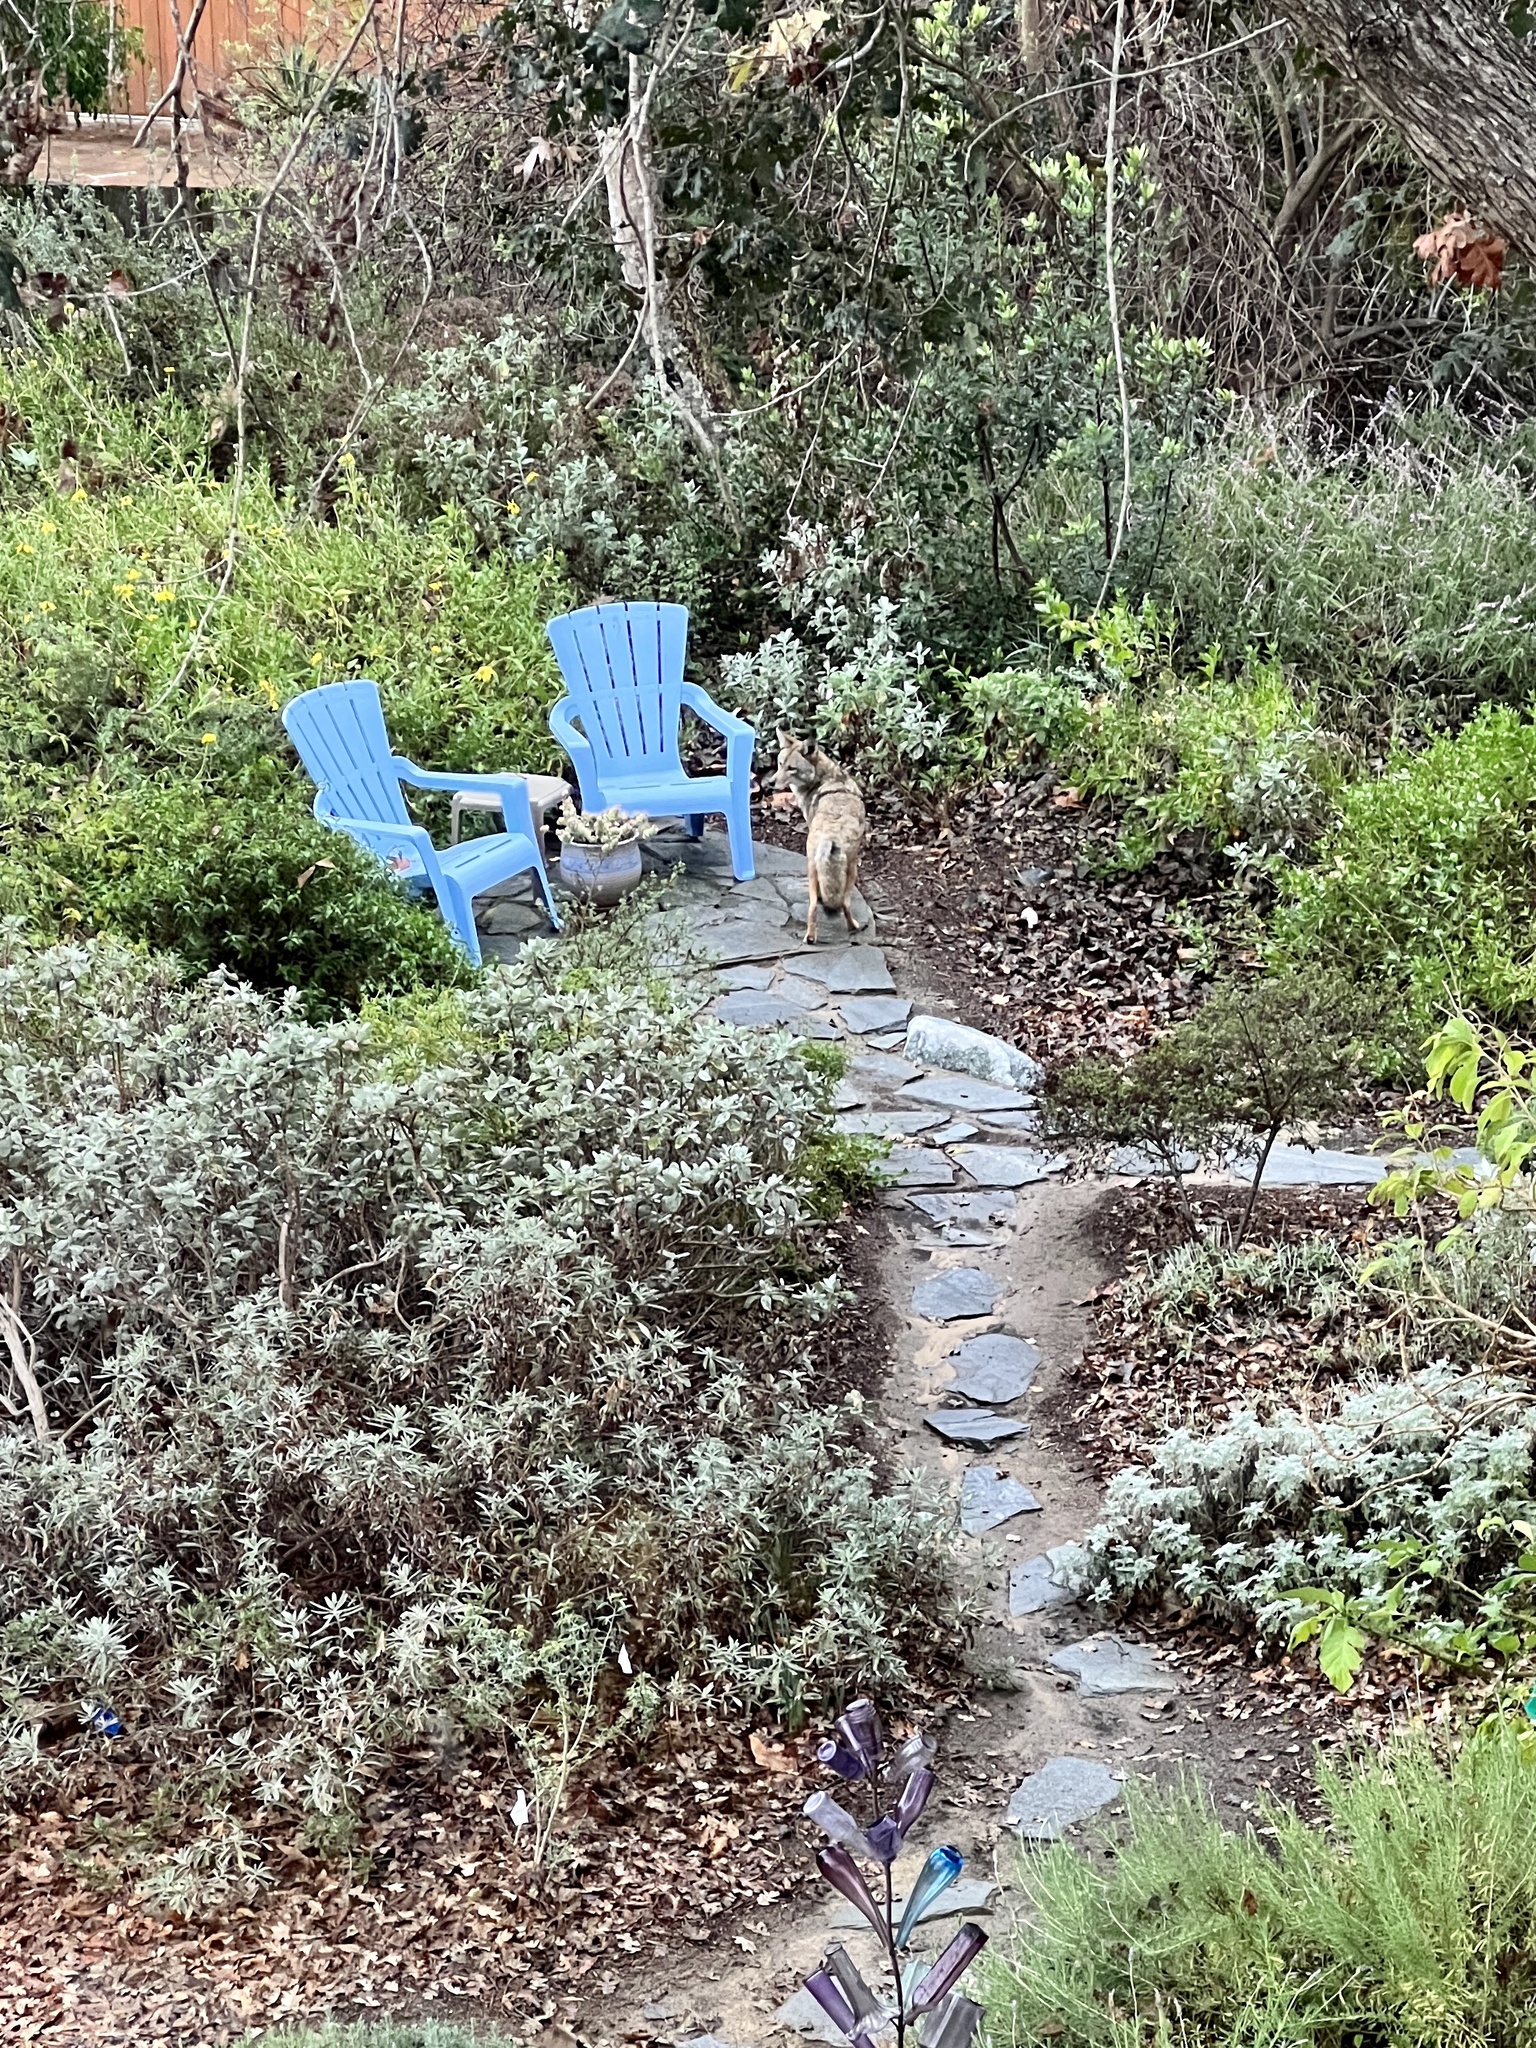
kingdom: Animalia
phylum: Chordata
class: Mammalia
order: Carnivora
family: Canidae
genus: Canis
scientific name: Canis latrans
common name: Coyote
